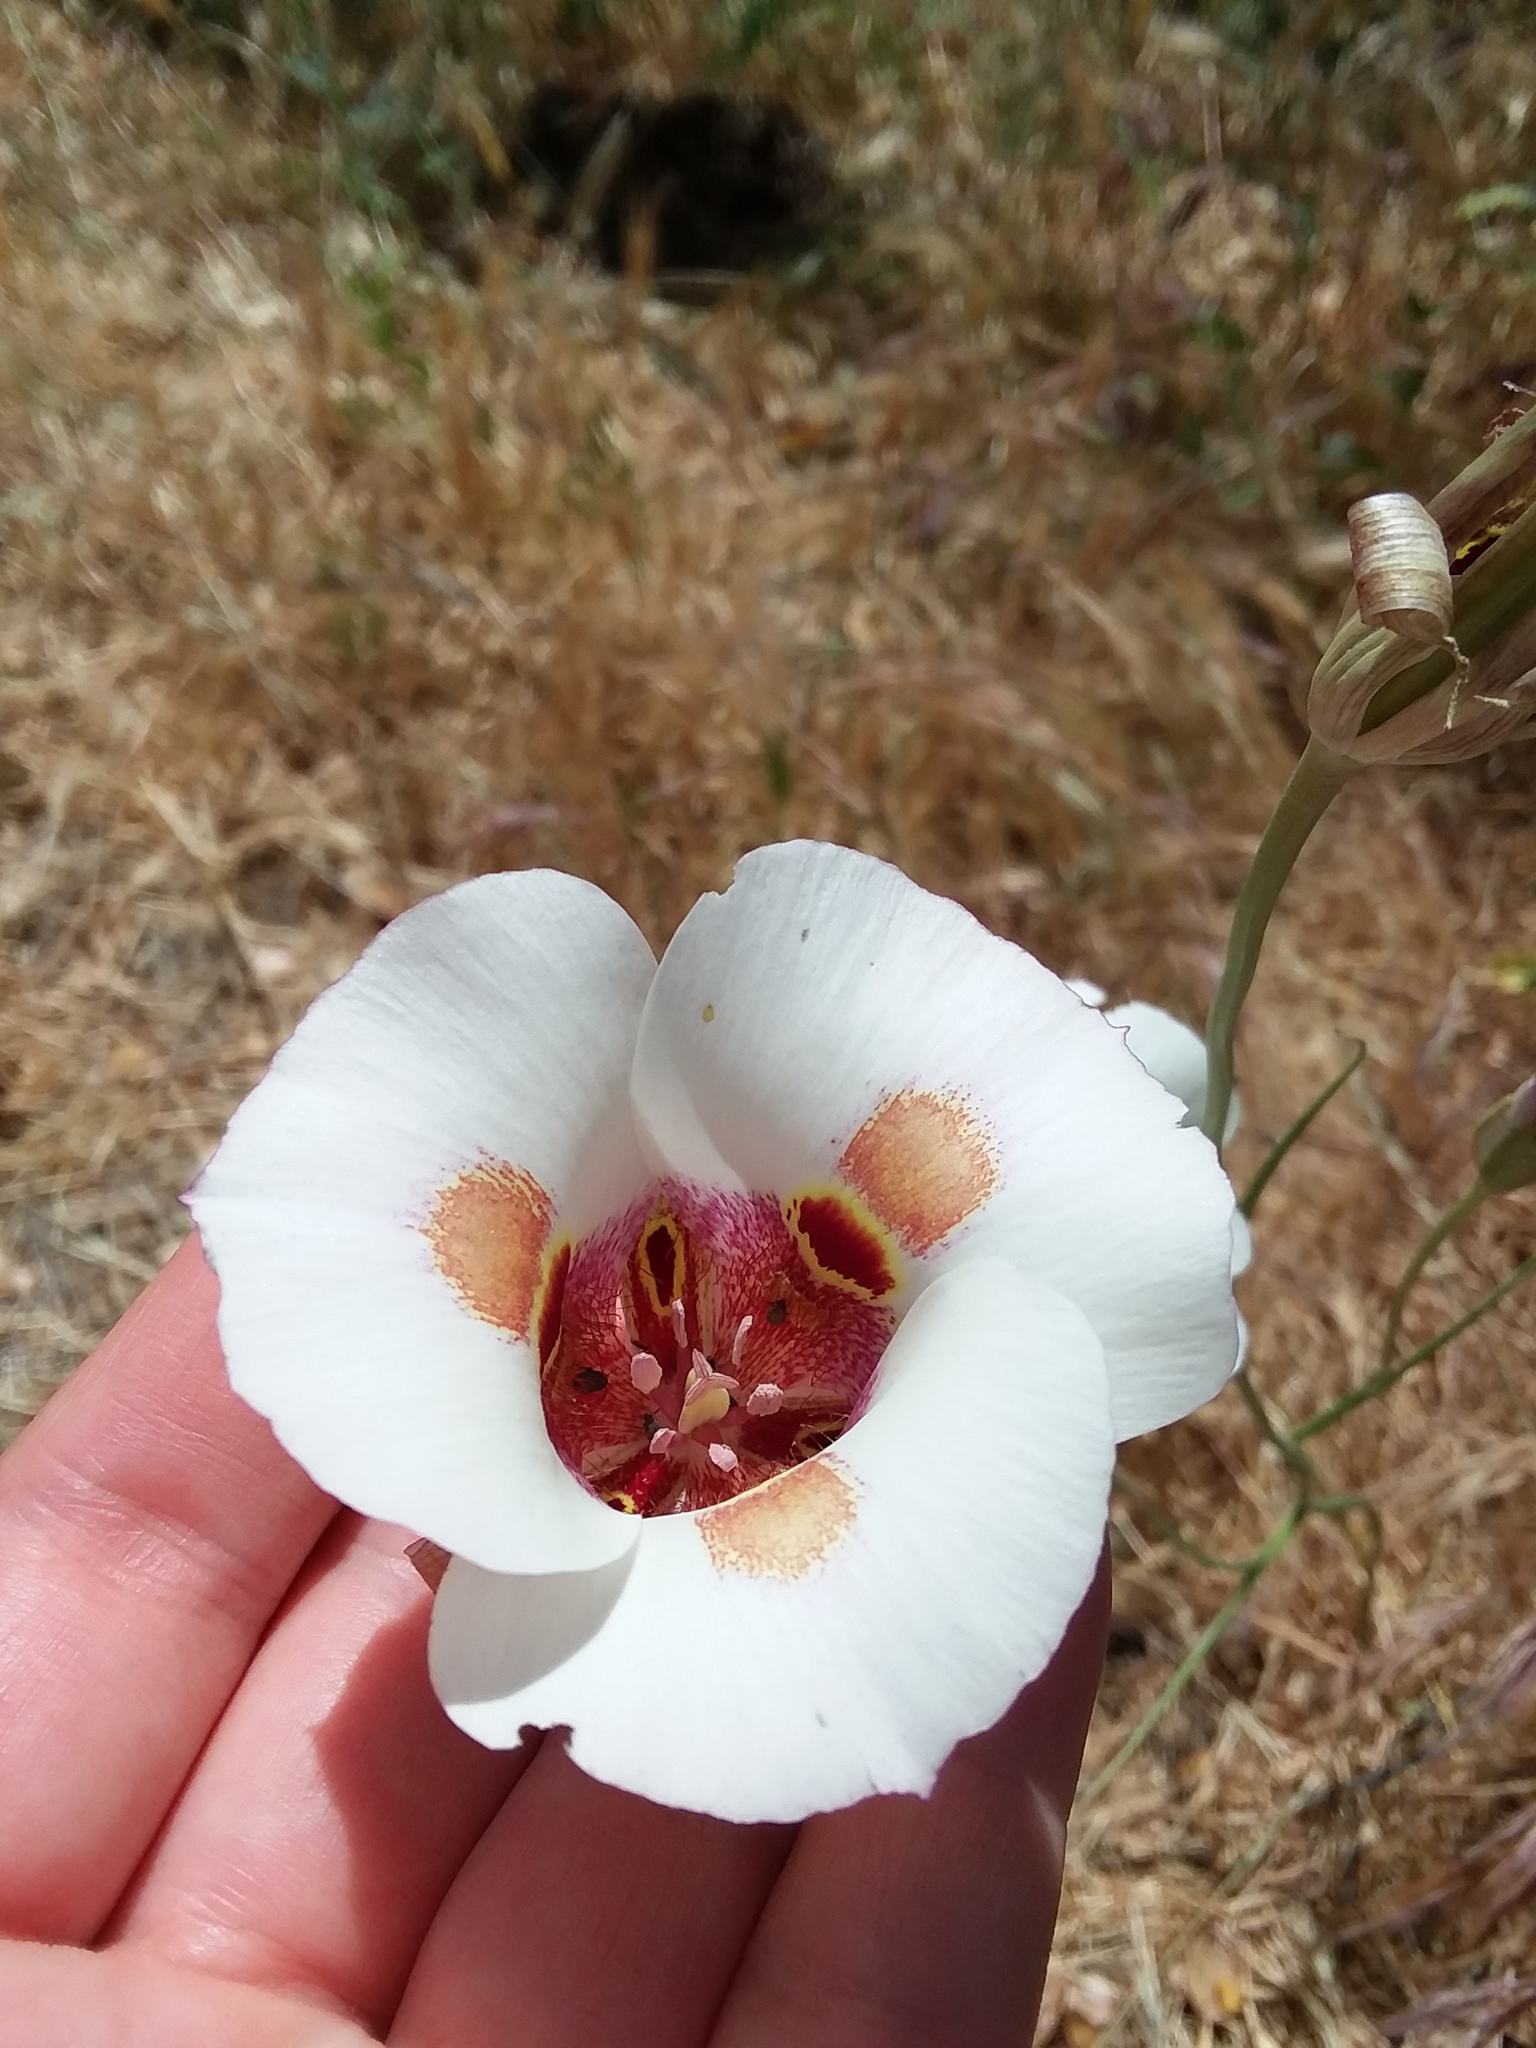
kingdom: Plantae
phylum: Tracheophyta
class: Liliopsida
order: Liliales
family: Liliaceae
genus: Calochortus
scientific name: Calochortus venustus
